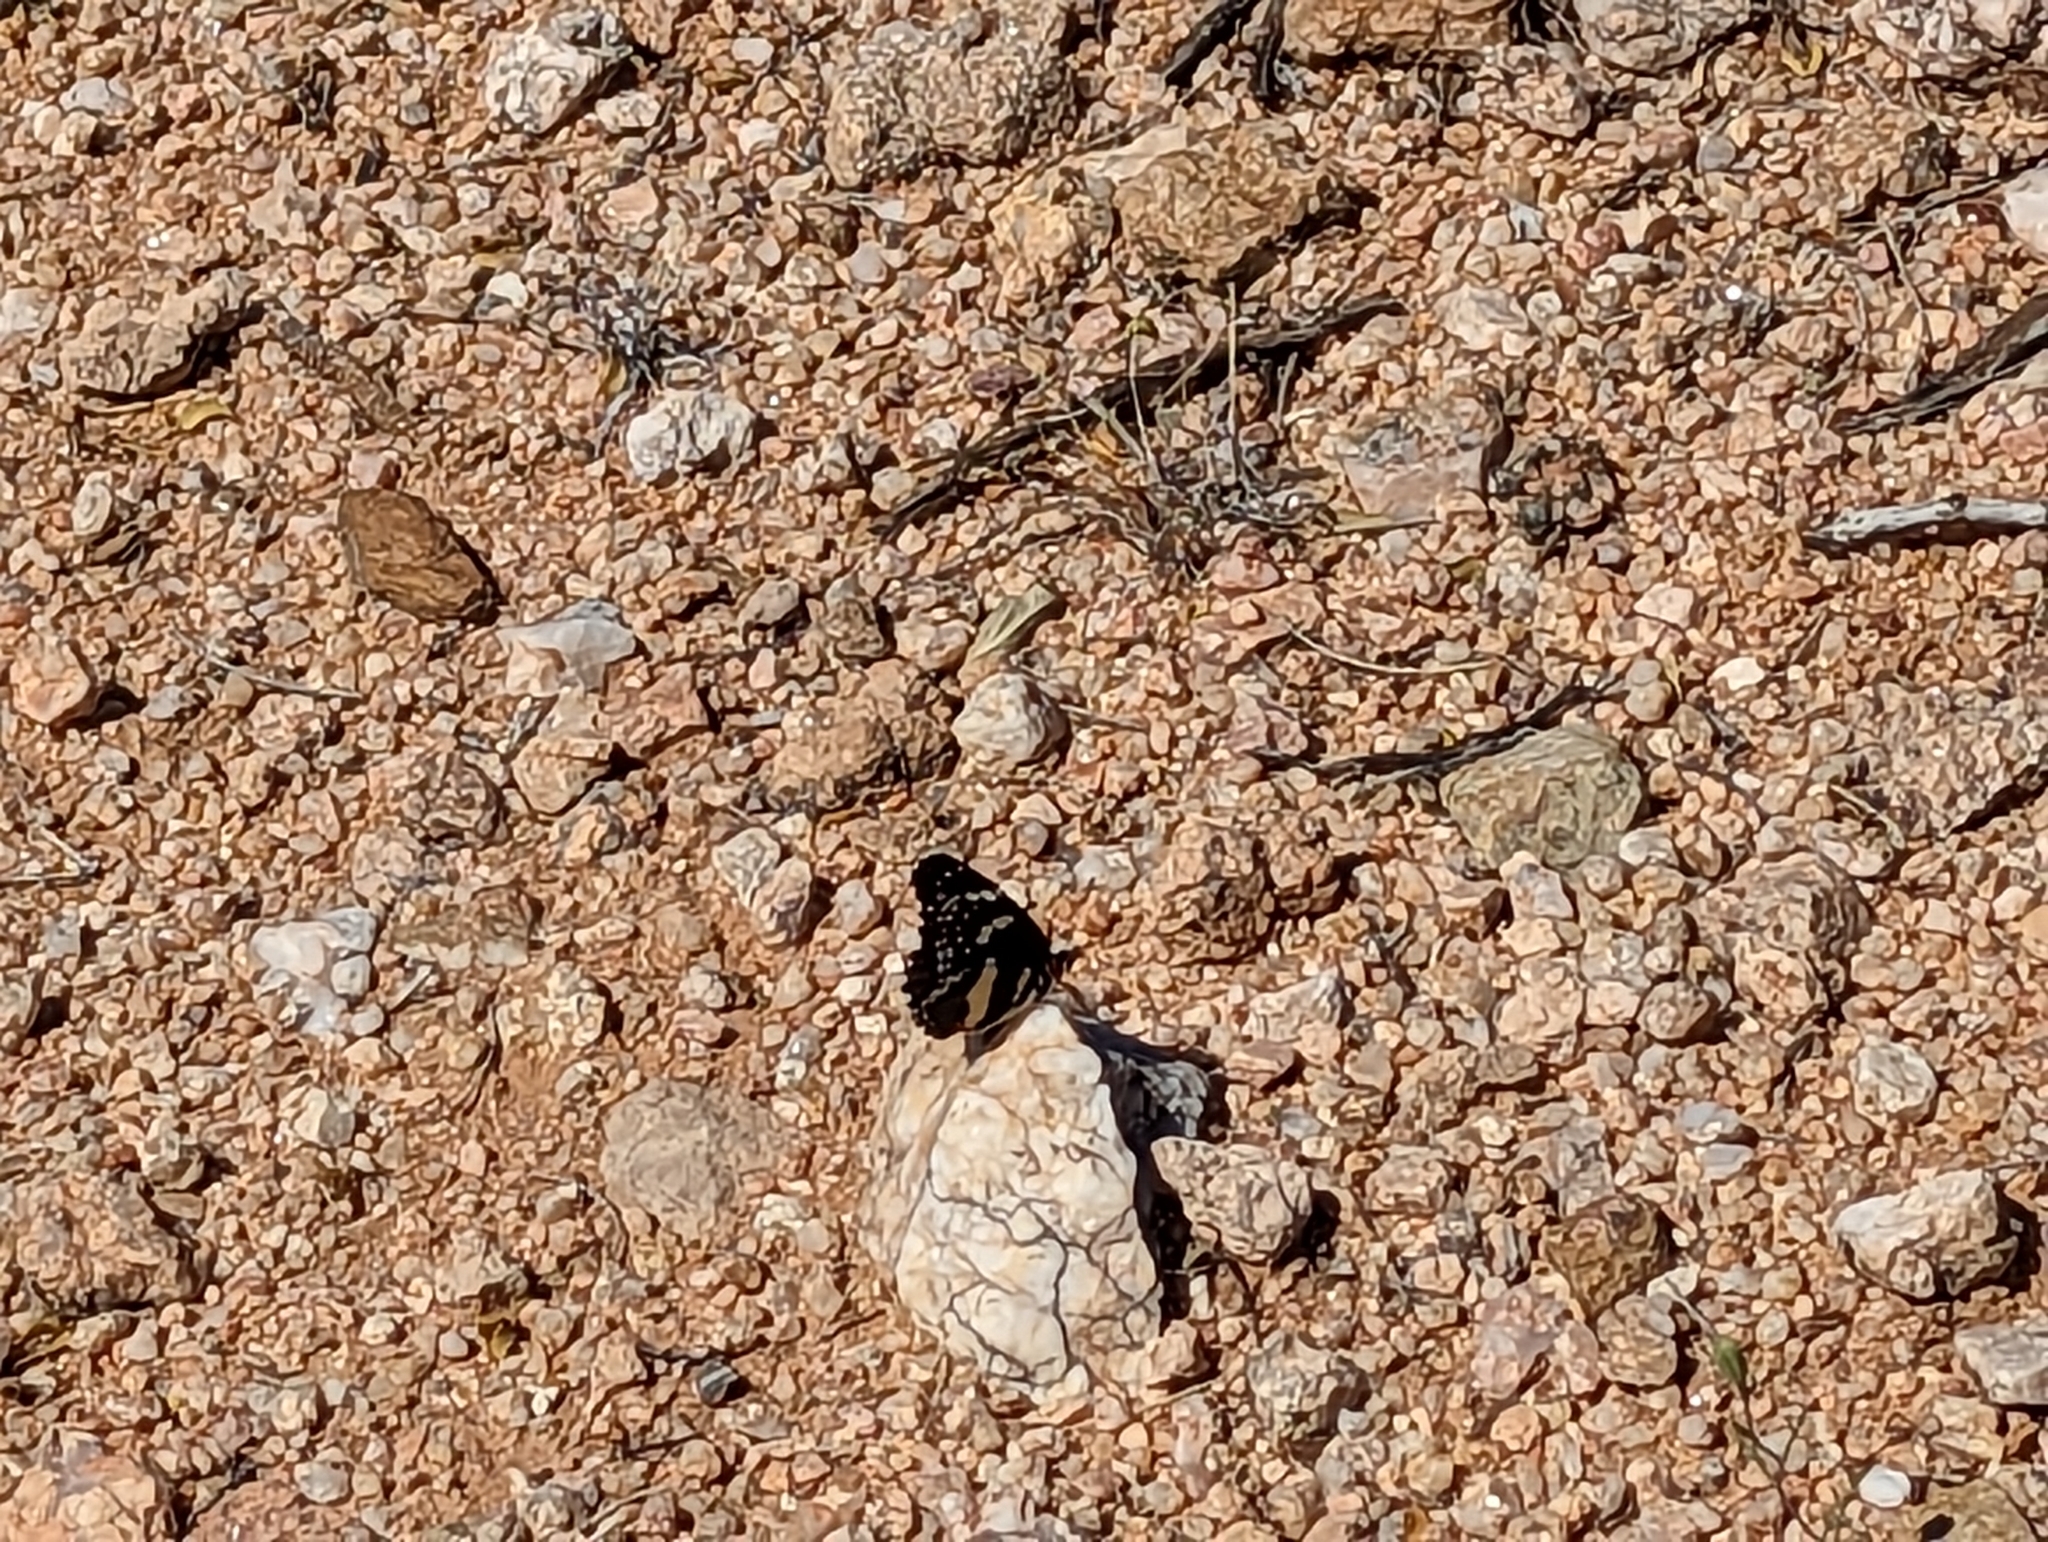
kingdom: Animalia
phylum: Arthropoda
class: Insecta
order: Lepidoptera
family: Nymphalidae
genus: Chlosyne
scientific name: Chlosyne lacinia
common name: Bordered patch
